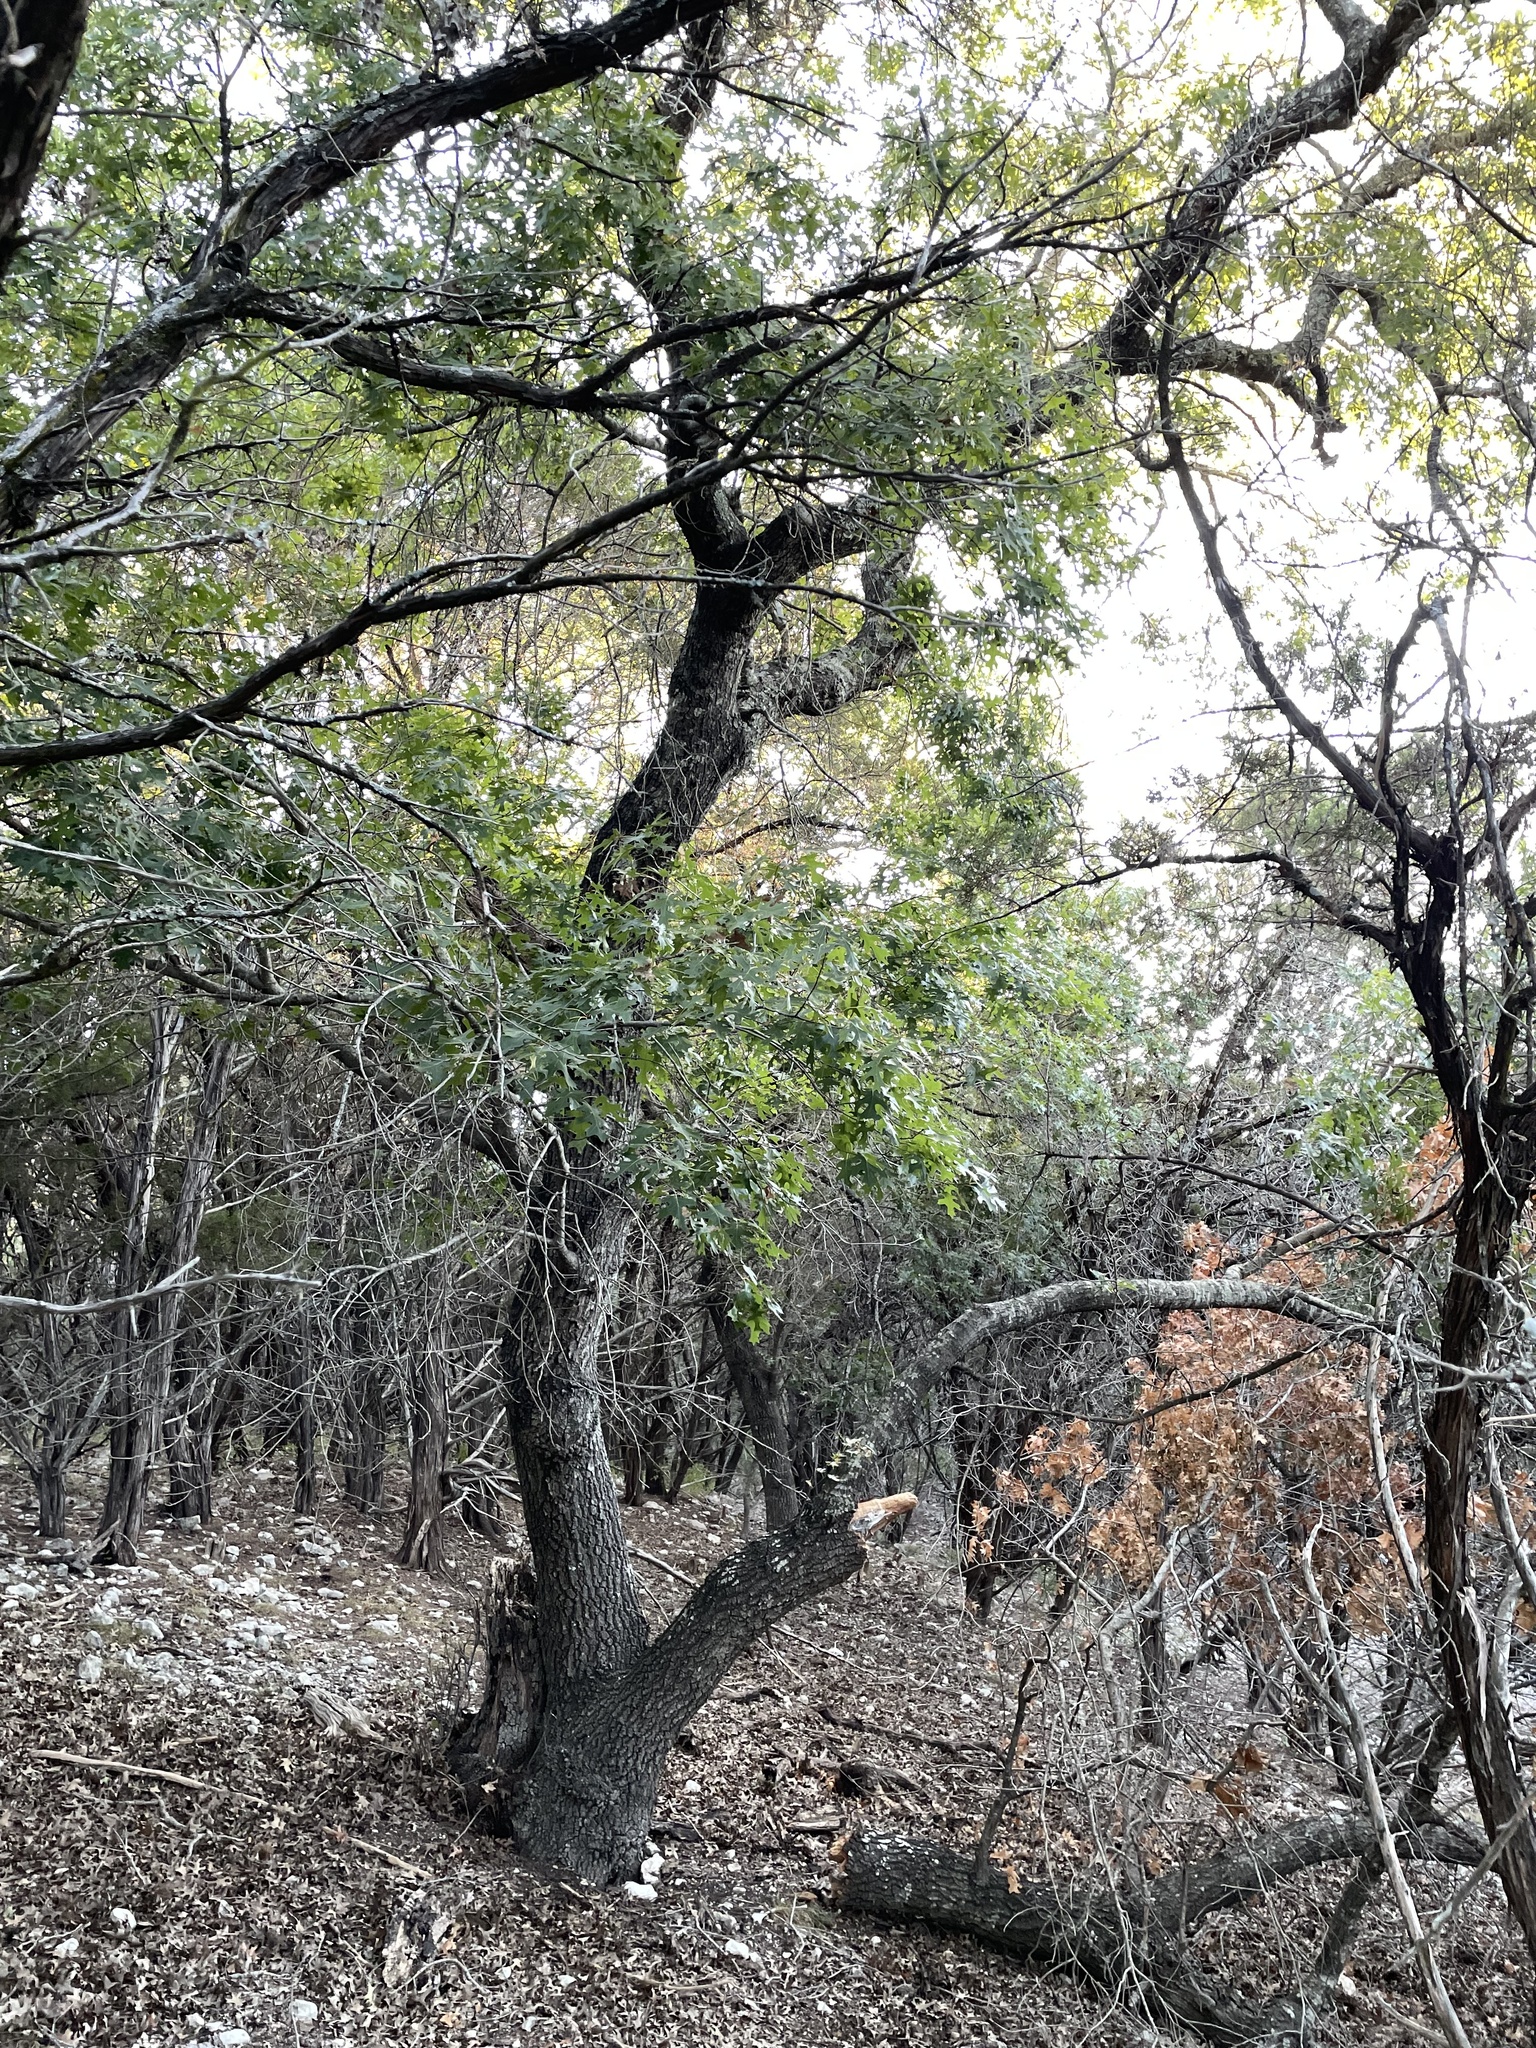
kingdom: Plantae
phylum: Tracheophyta
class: Magnoliopsida
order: Fagales
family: Fagaceae
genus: Quercus
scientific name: Quercus buckleyi
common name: Buckley oak
